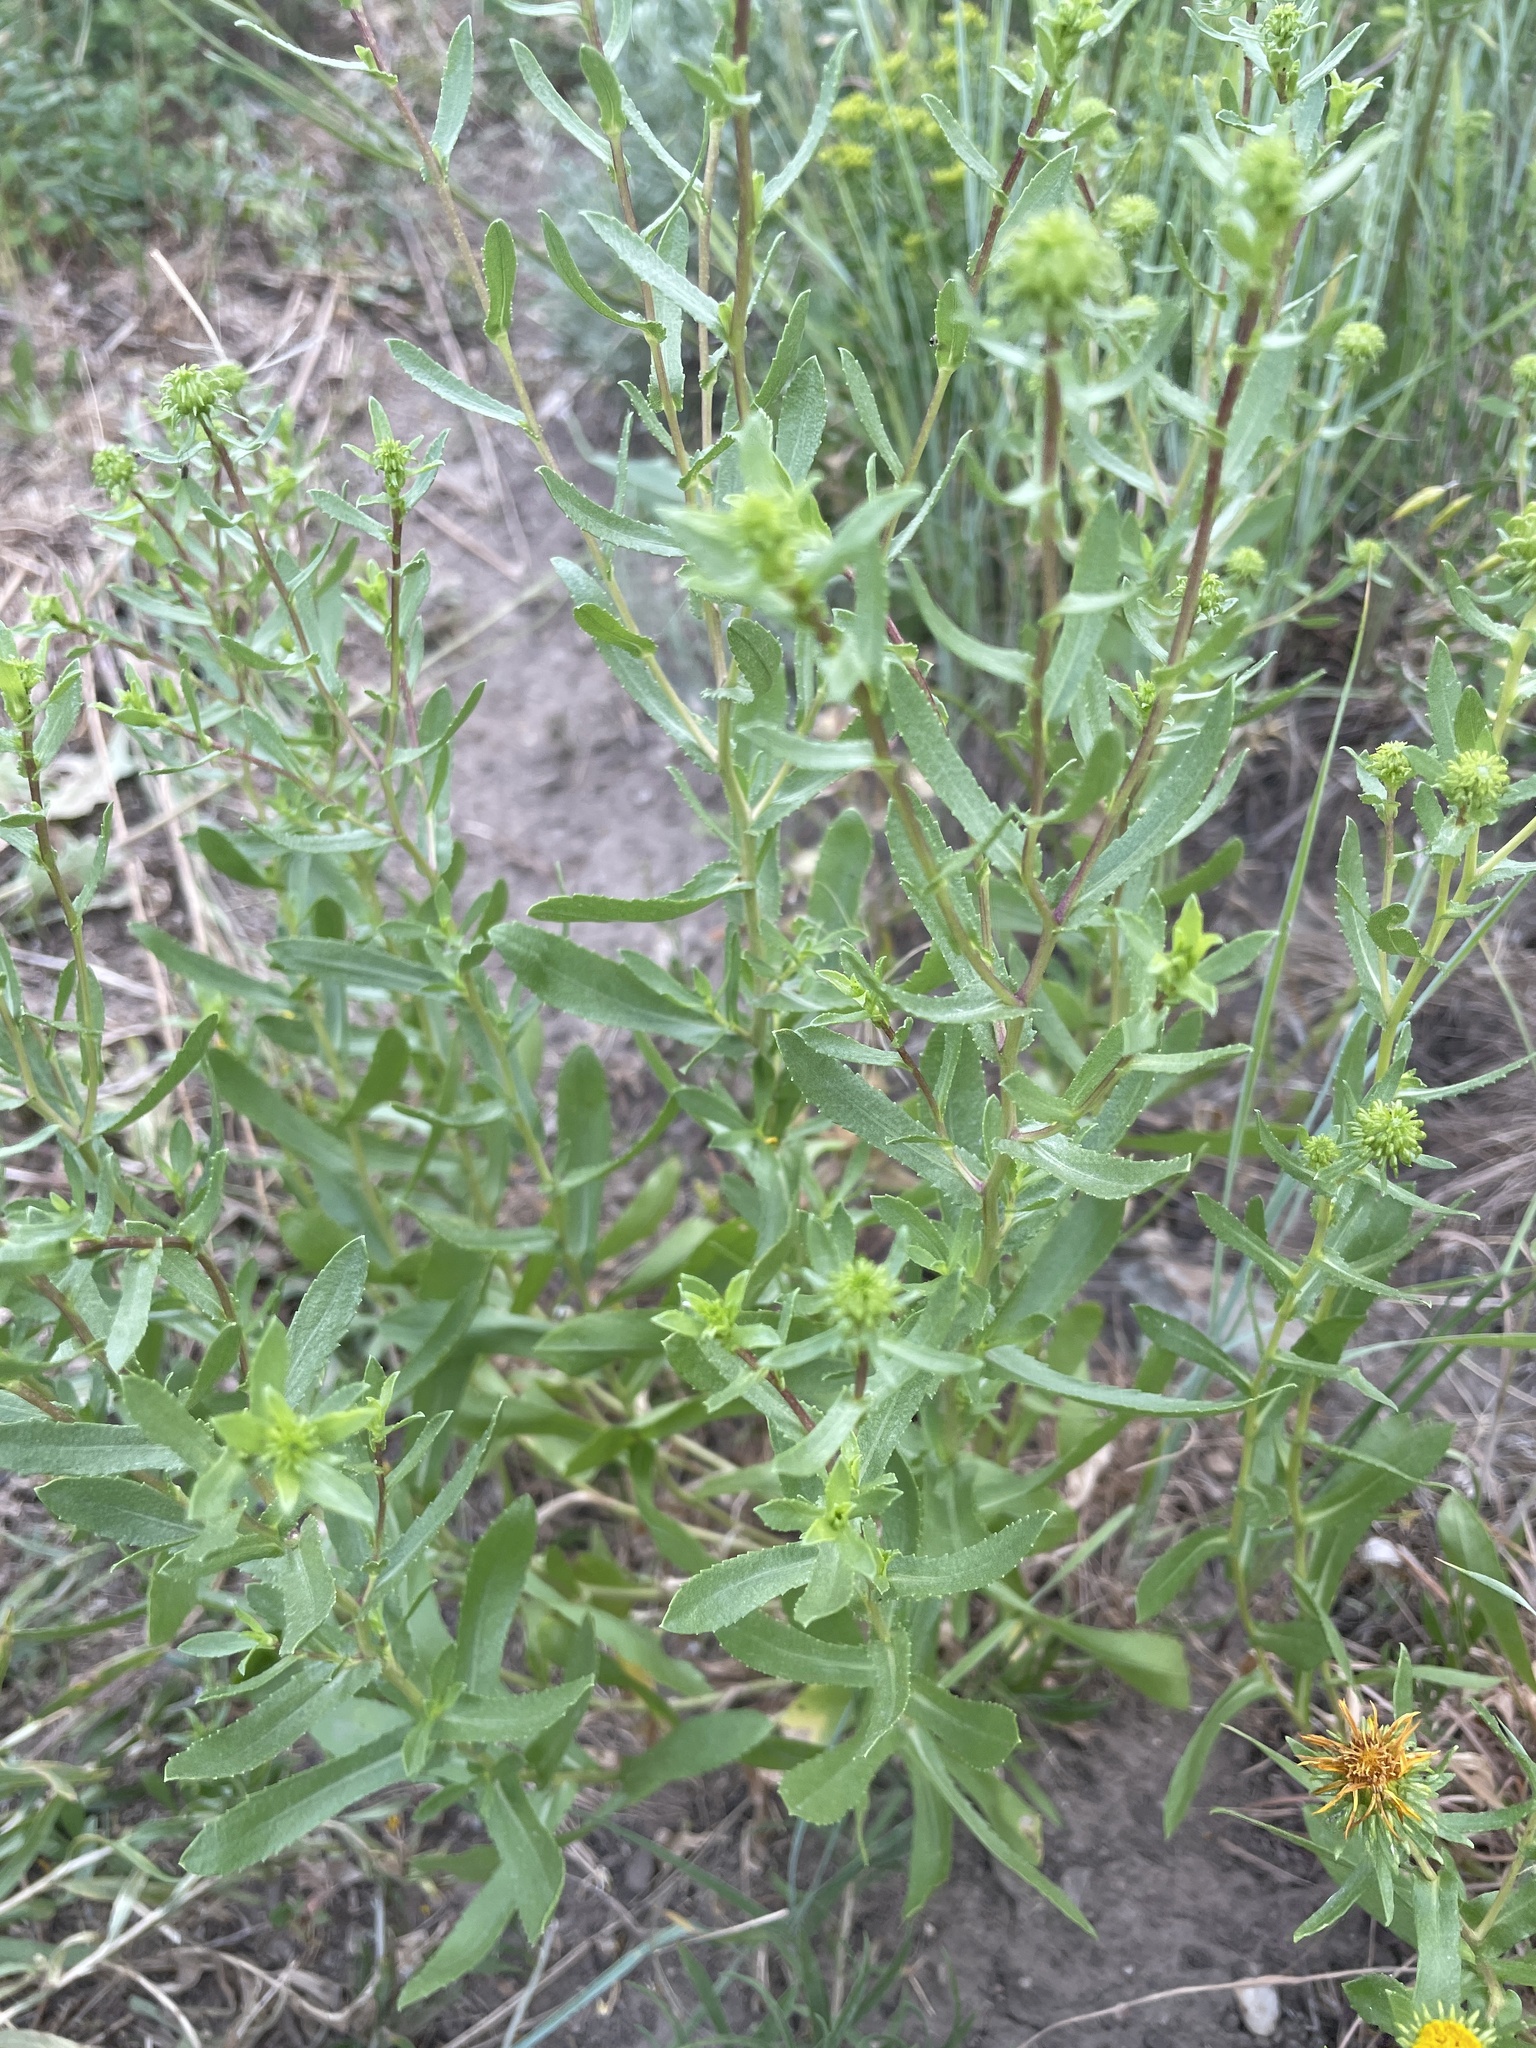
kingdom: Plantae
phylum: Tracheophyta
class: Magnoliopsida
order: Asterales
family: Asteraceae
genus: Grindelia
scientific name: Grindelia squarrosa
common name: Curly-cup gumweed
